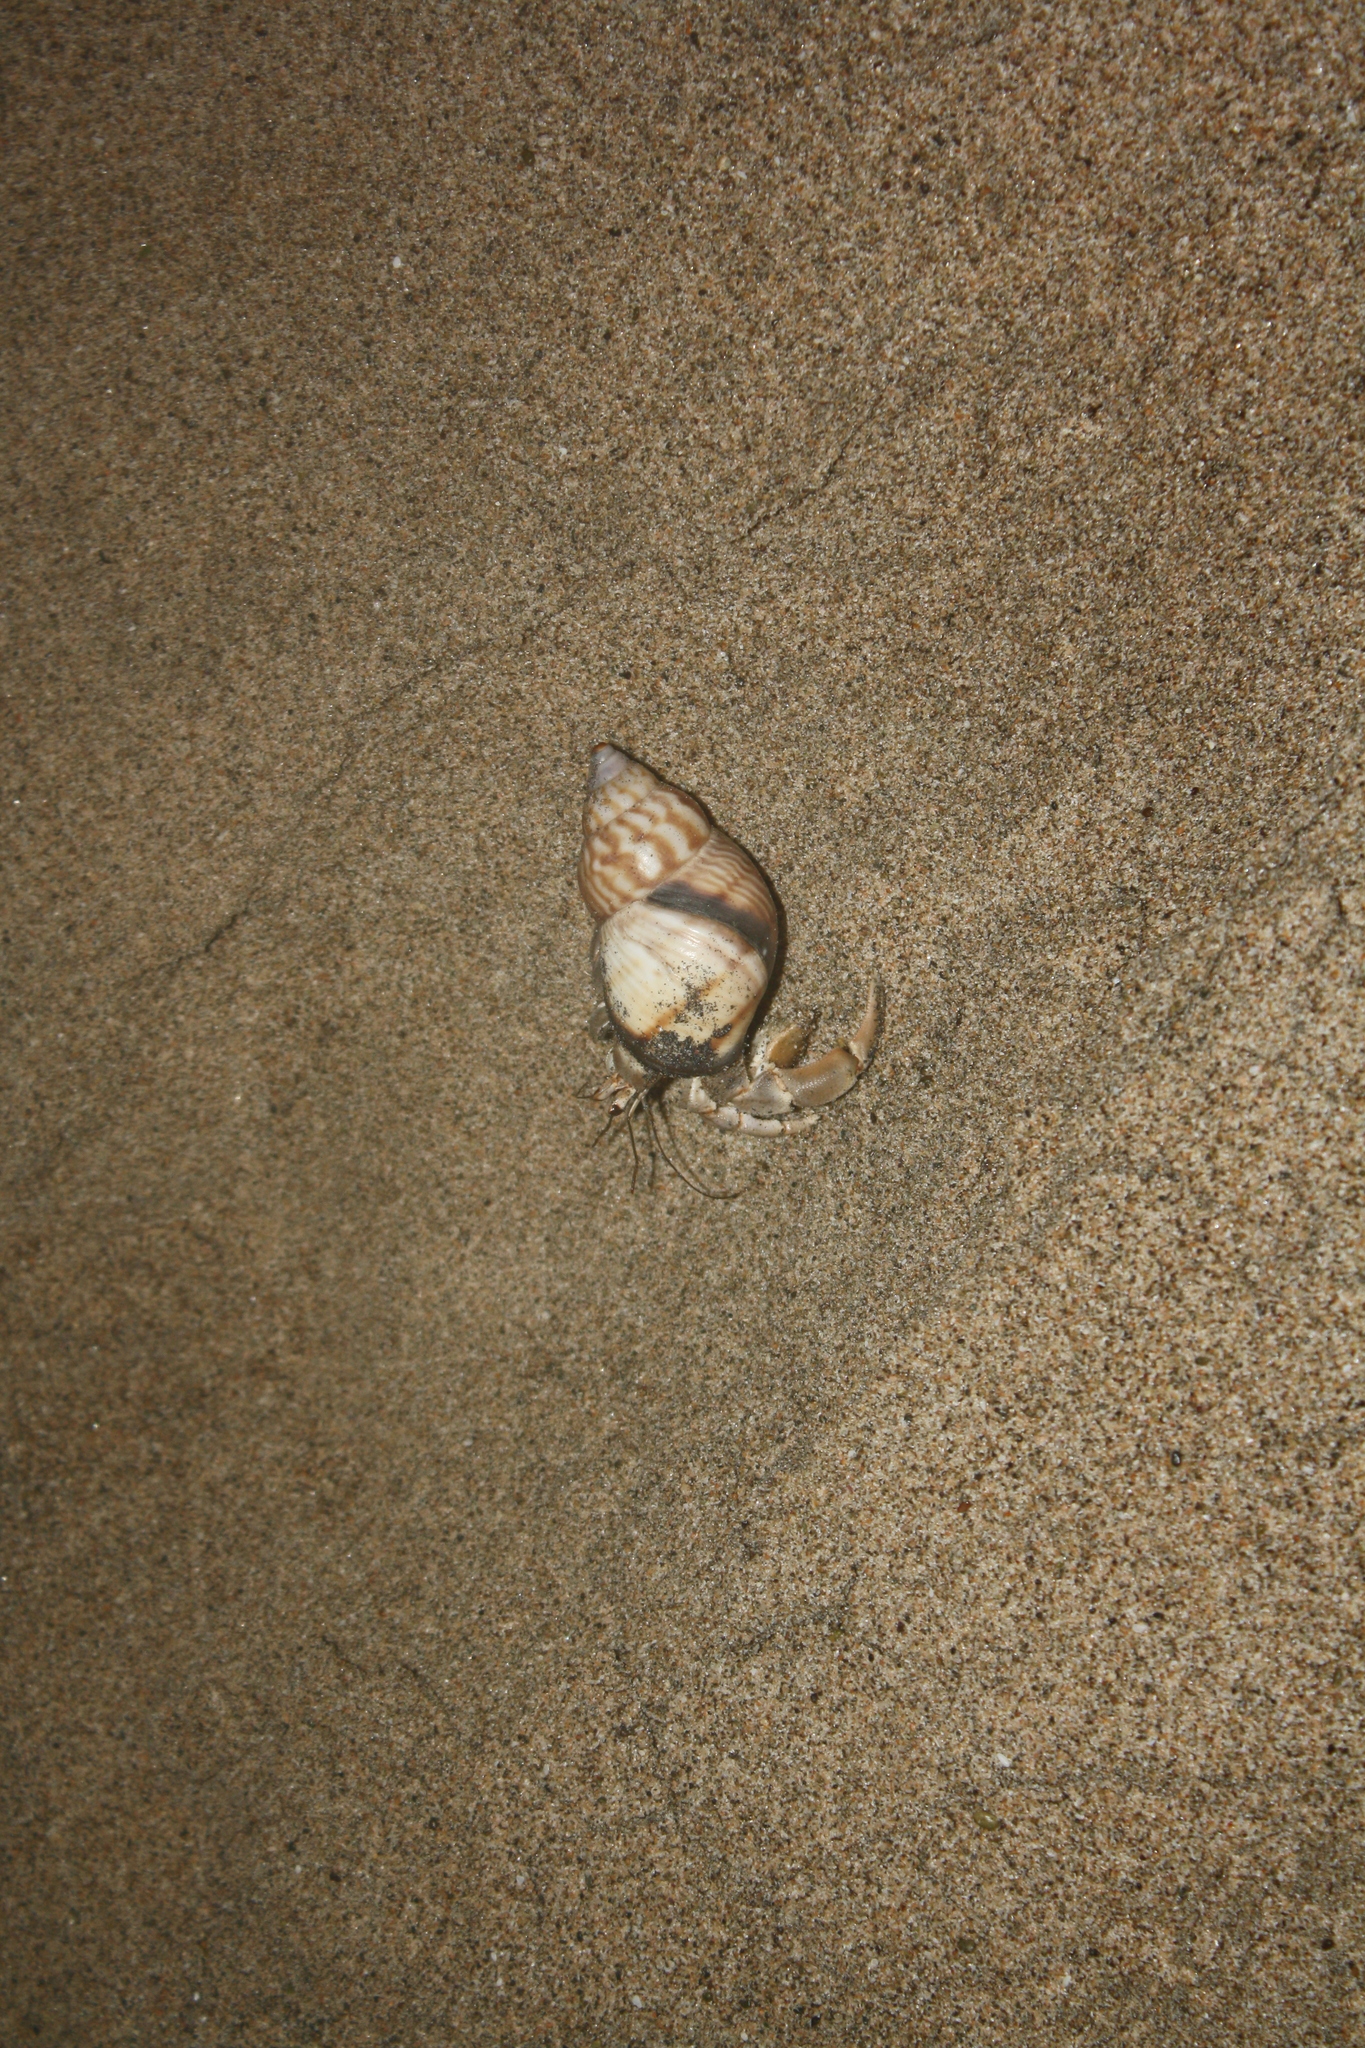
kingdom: Animalia
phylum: Arthropoda
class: Malacostraca
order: Decapoda
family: Coenobitidae
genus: Coenobita
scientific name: Coenobita compressus
